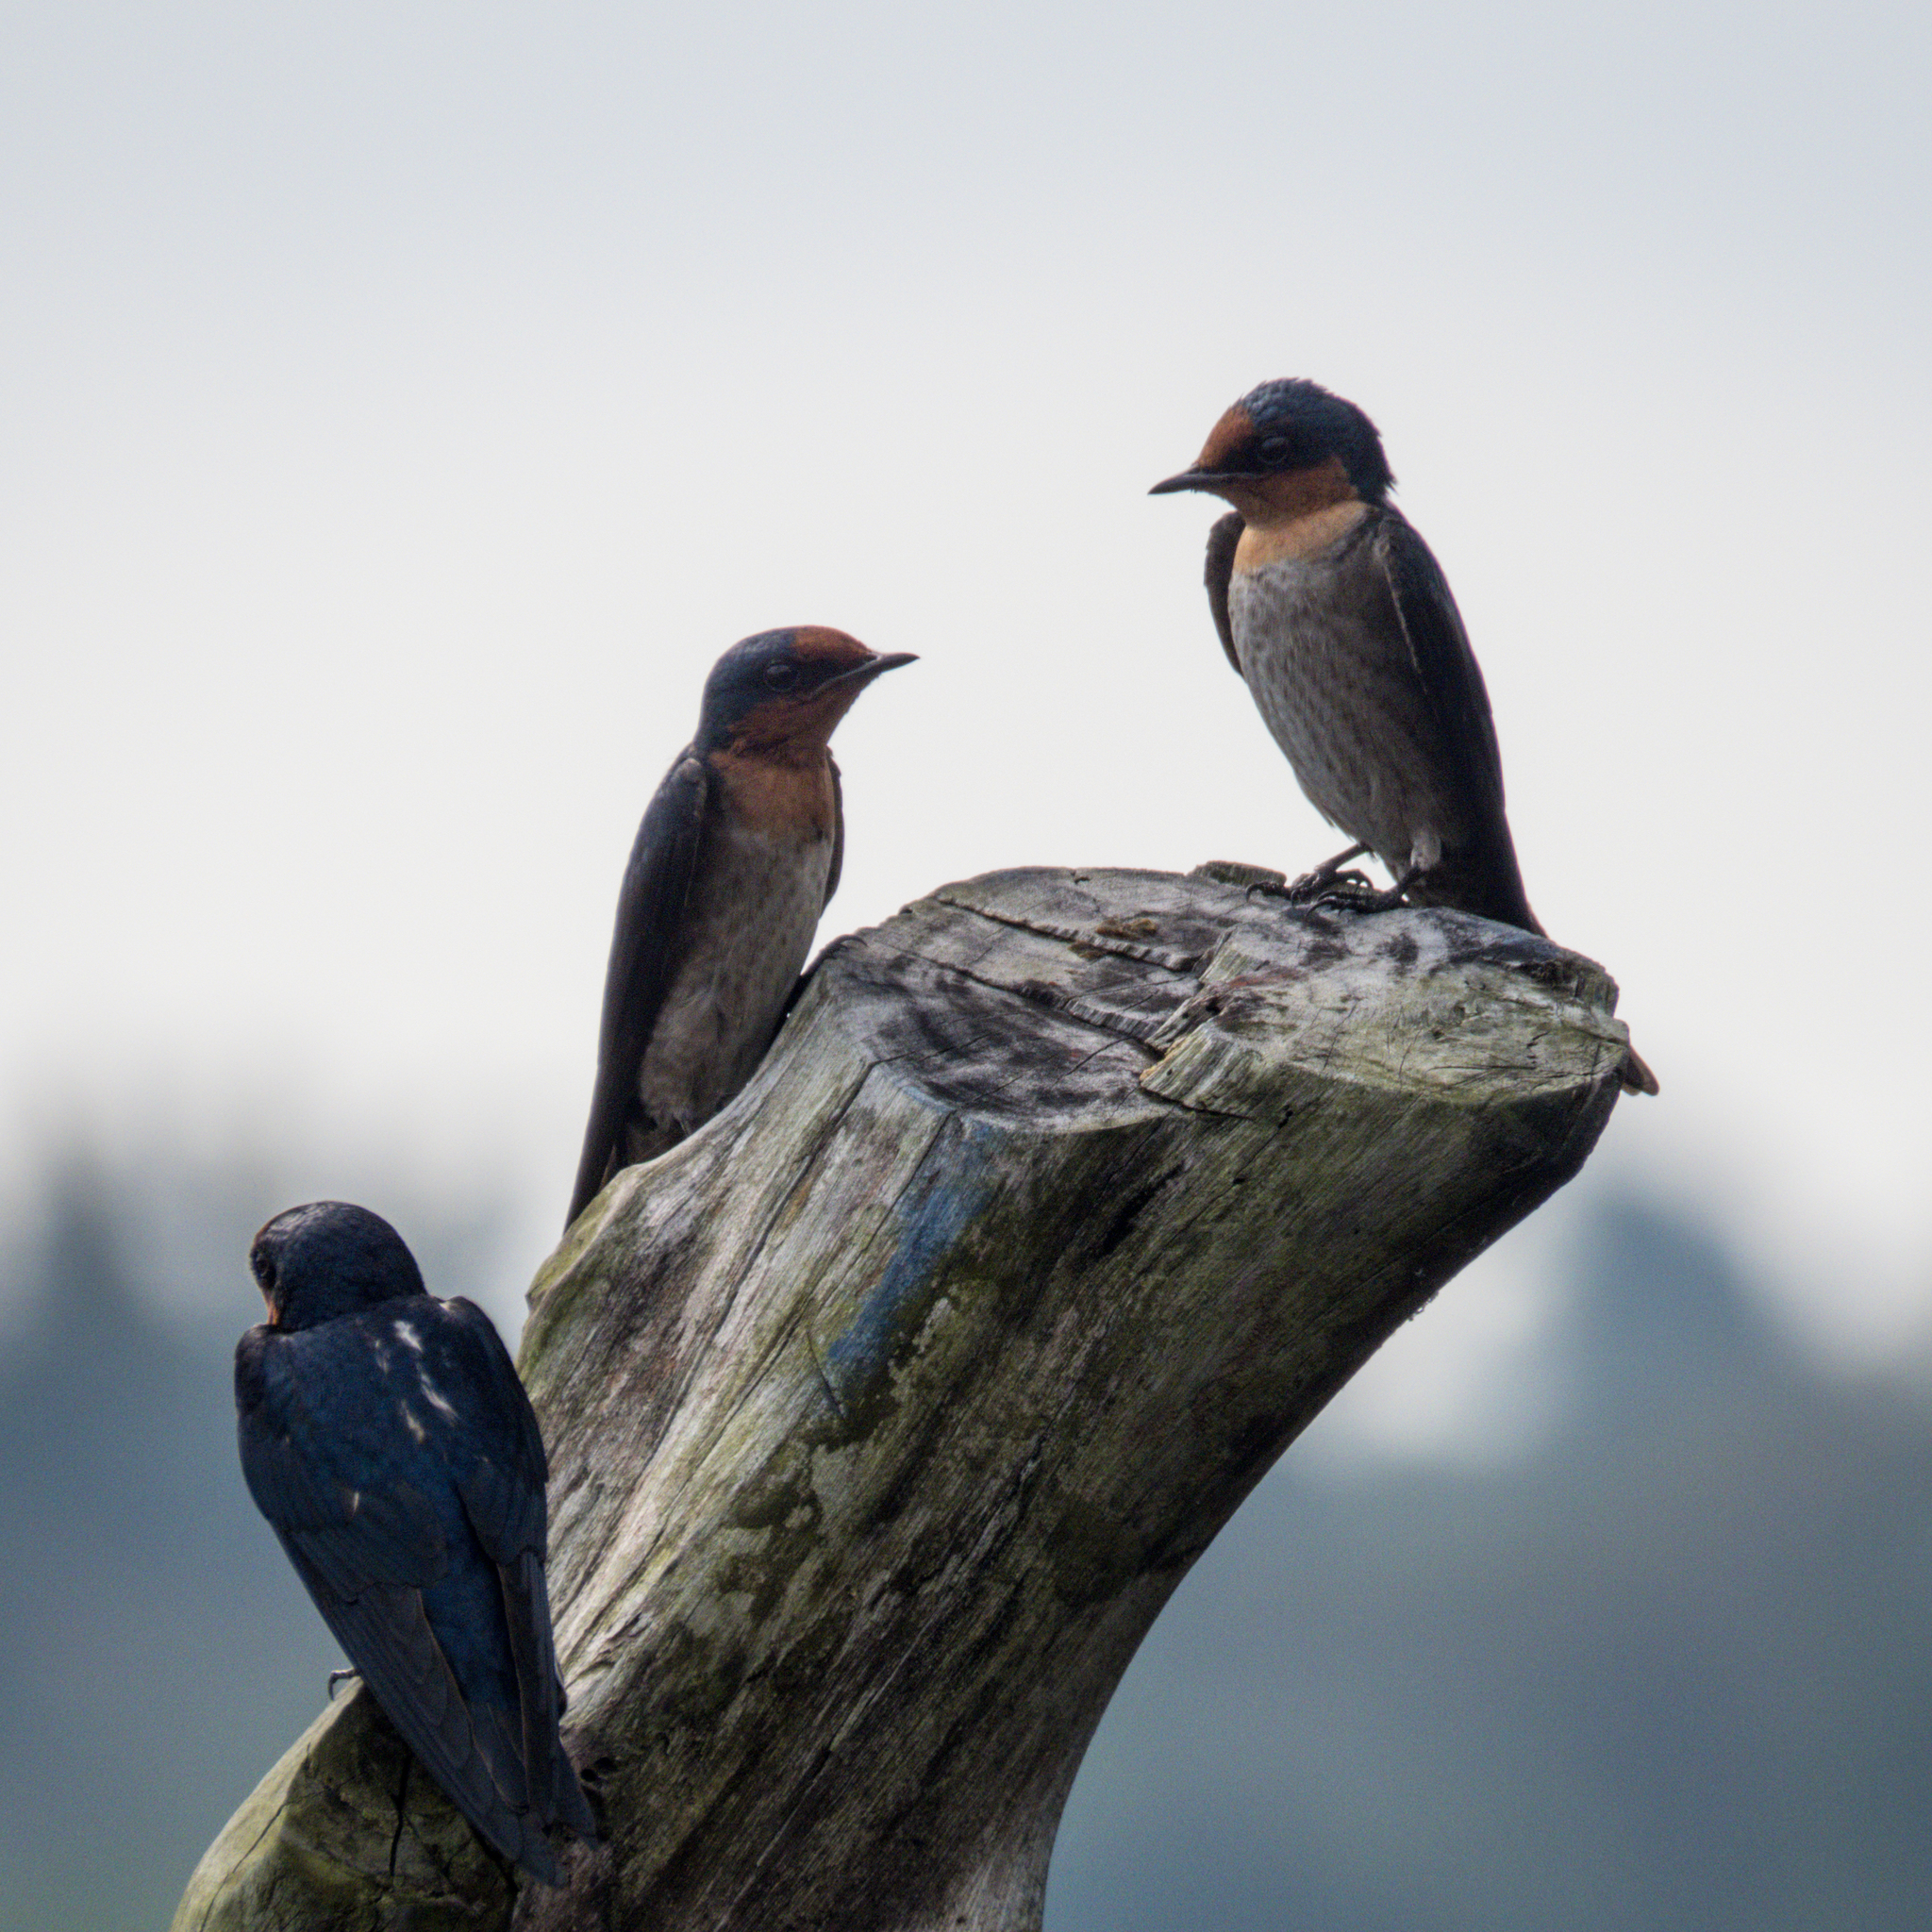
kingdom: Animalia
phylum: Chordata
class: Aves
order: Passeriformes
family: Hirundinidae
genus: Hirundo
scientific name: Hirundo tahitica
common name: Pacific swallow
